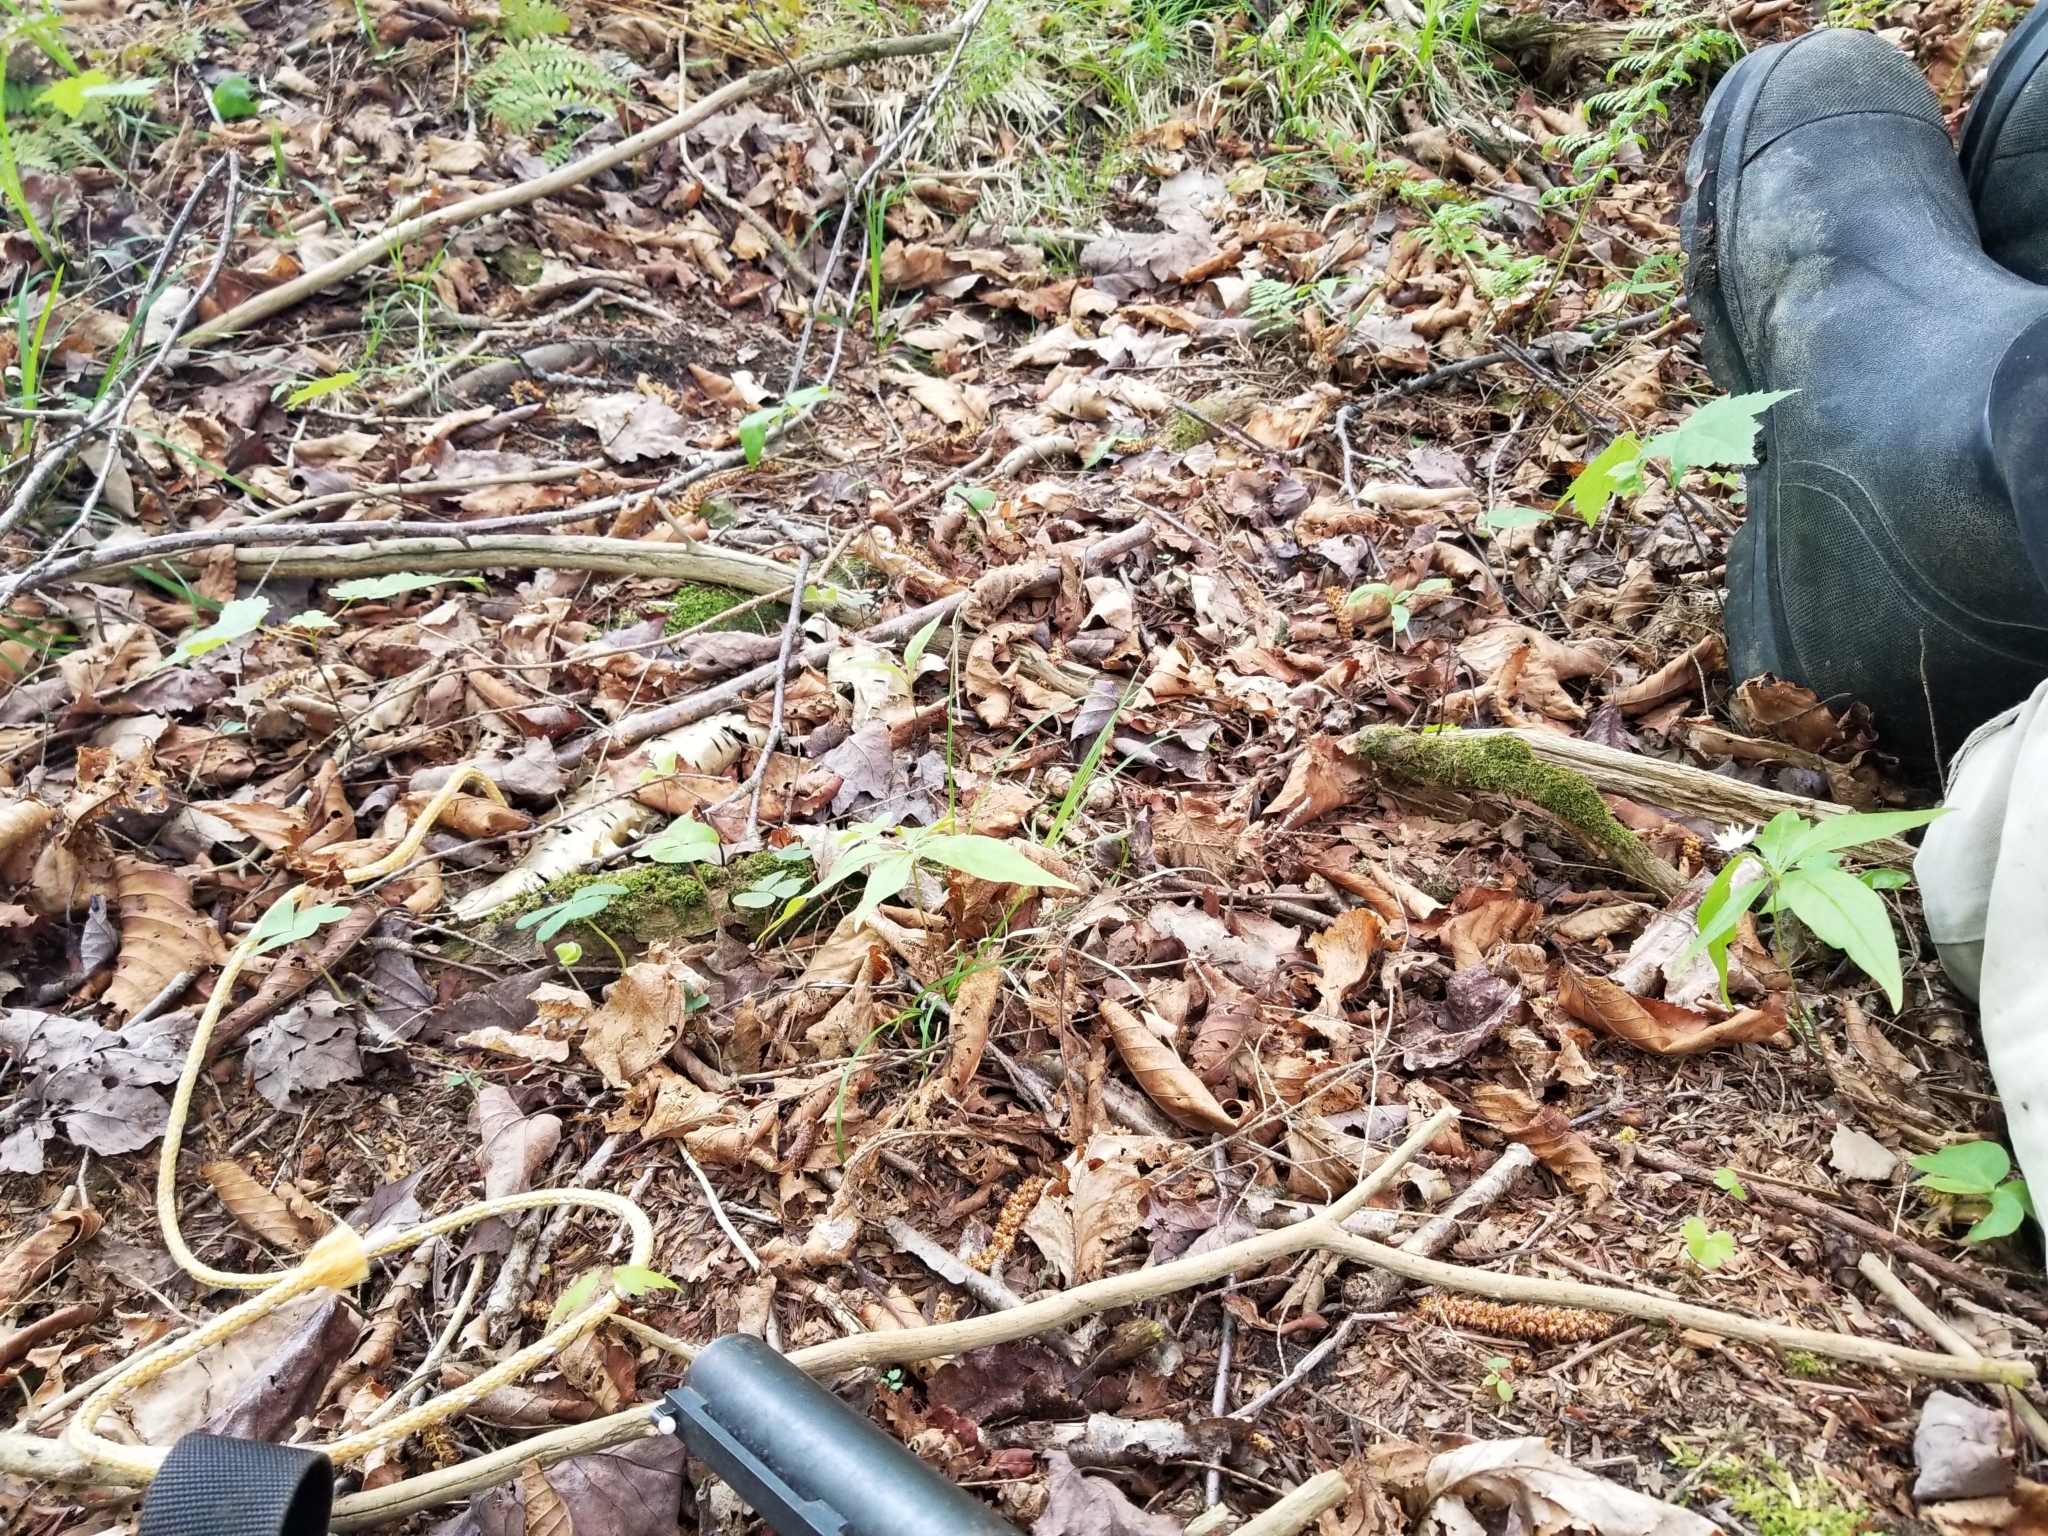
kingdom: Plantae
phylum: Tracheophyta
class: Magnoliopsida
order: Ericales
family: Primulaceae
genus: Lysimachia
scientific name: Lysimachia borealis
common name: American starflower
